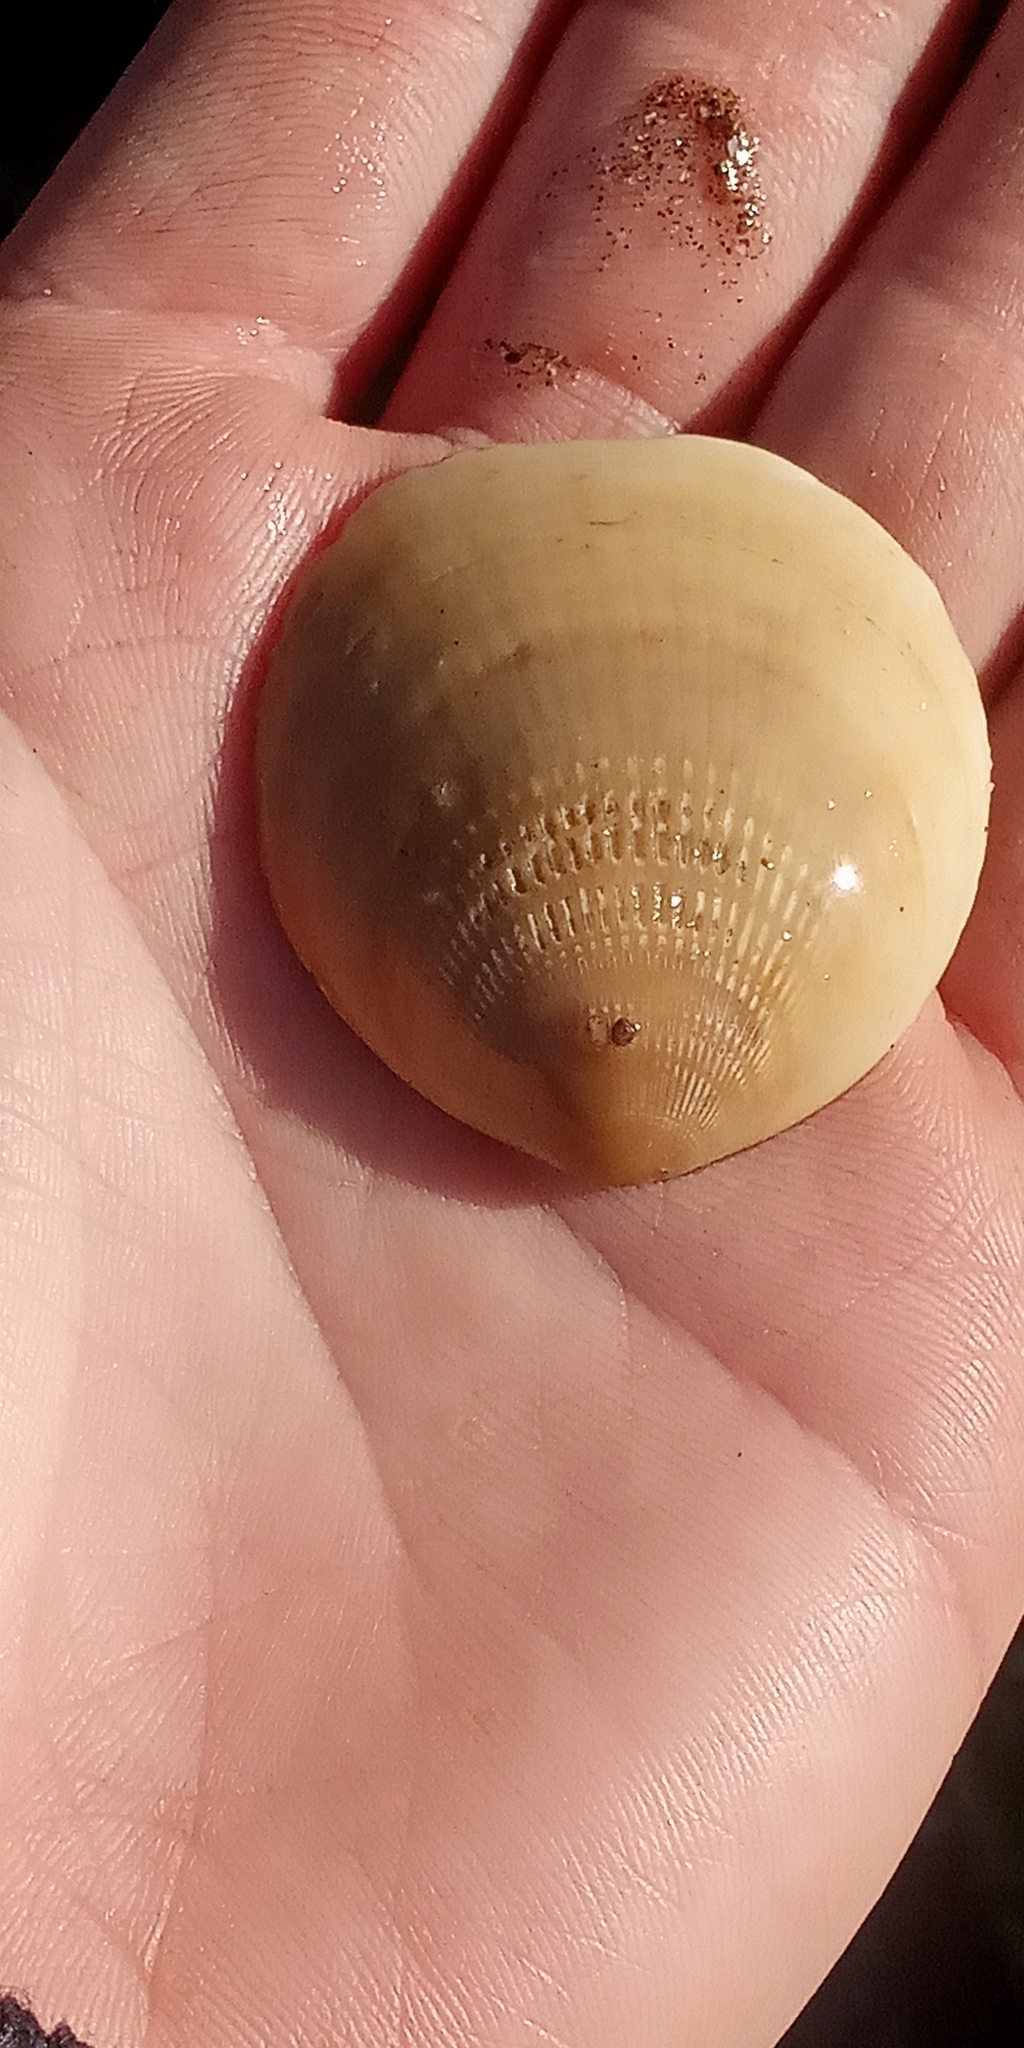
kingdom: Animalia
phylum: Mollusca
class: Bivalvia
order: Arcida
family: Glycymerididae
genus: Glycymeris
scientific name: Glycymeris longior
